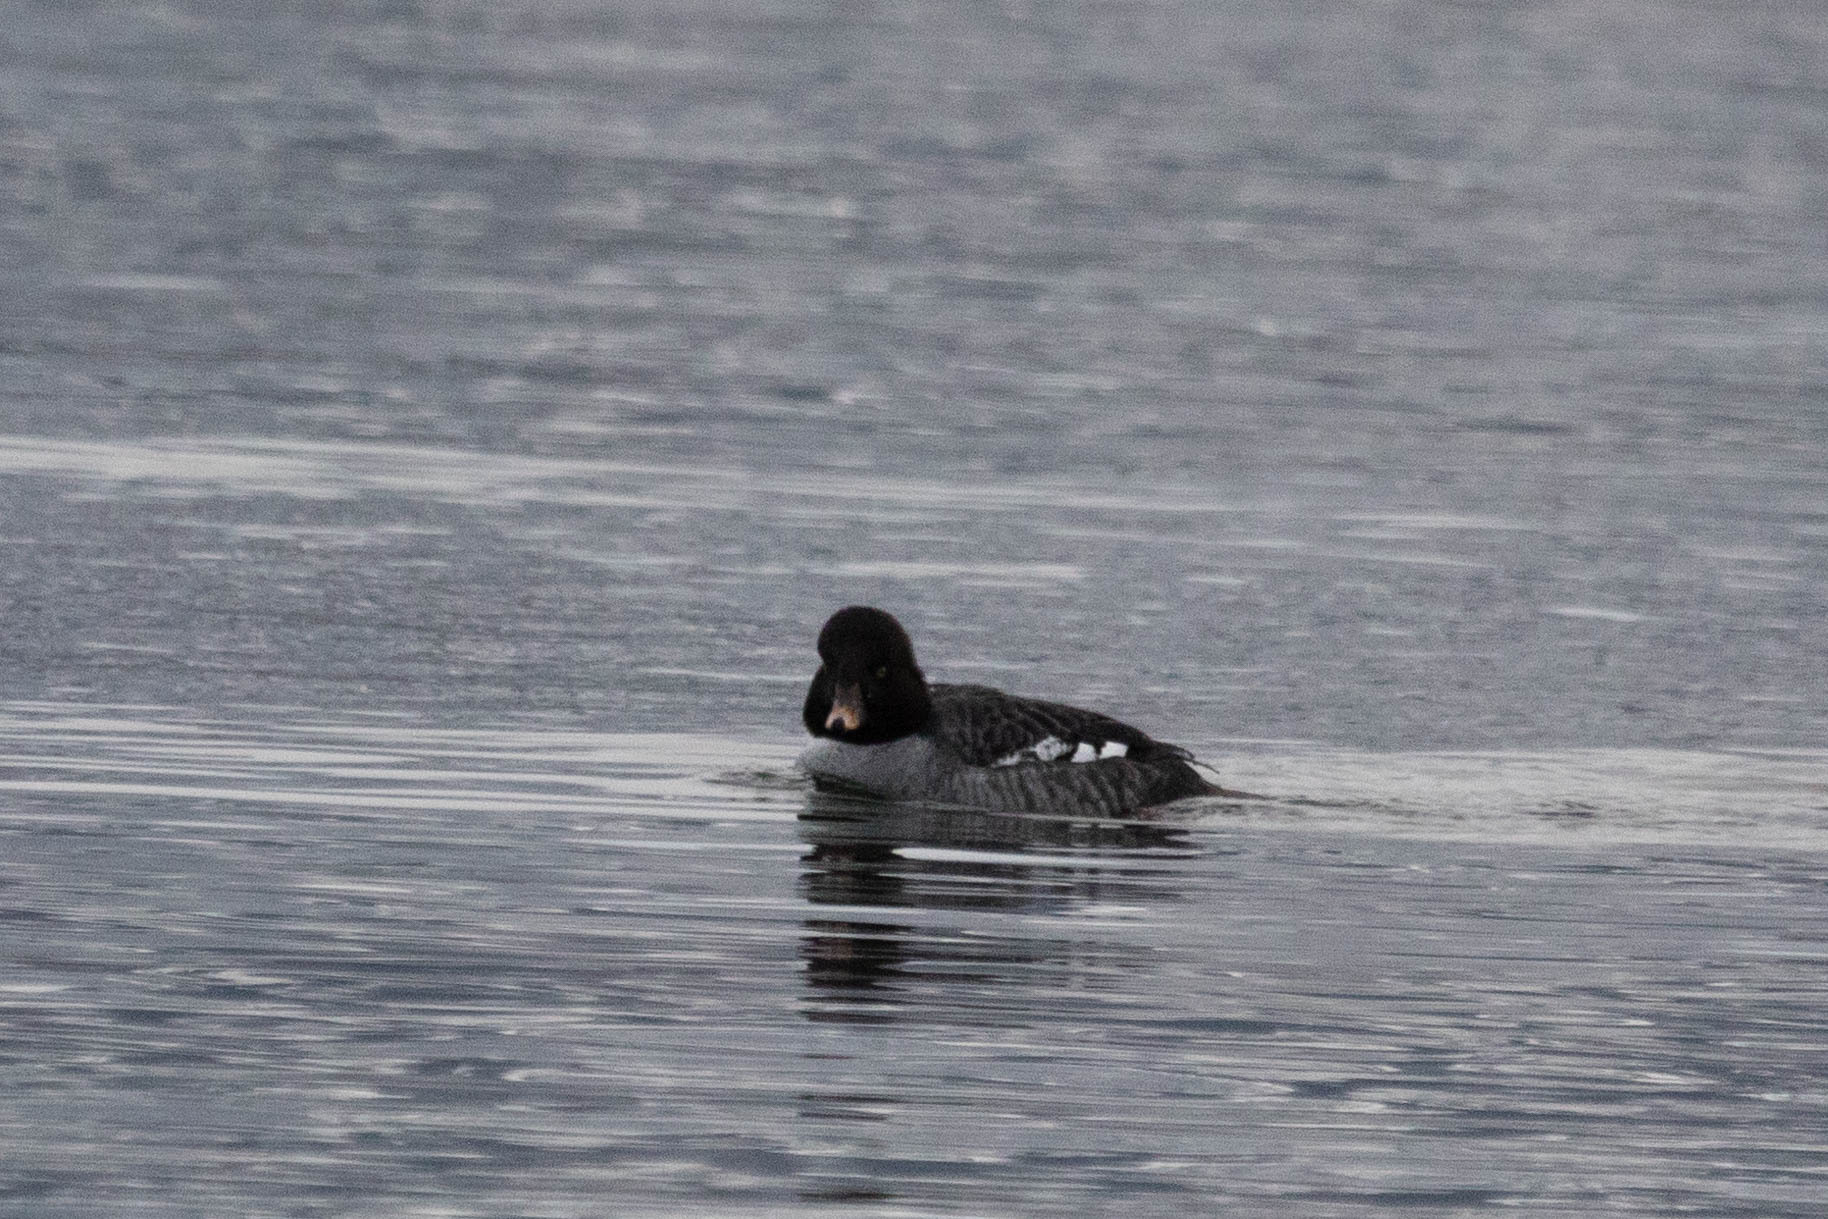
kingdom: Animalia
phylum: Chordata
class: Aves
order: Anseriformes
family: Anatidae
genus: Bucephala
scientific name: Bucephala clangula
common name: Common goldeneye
